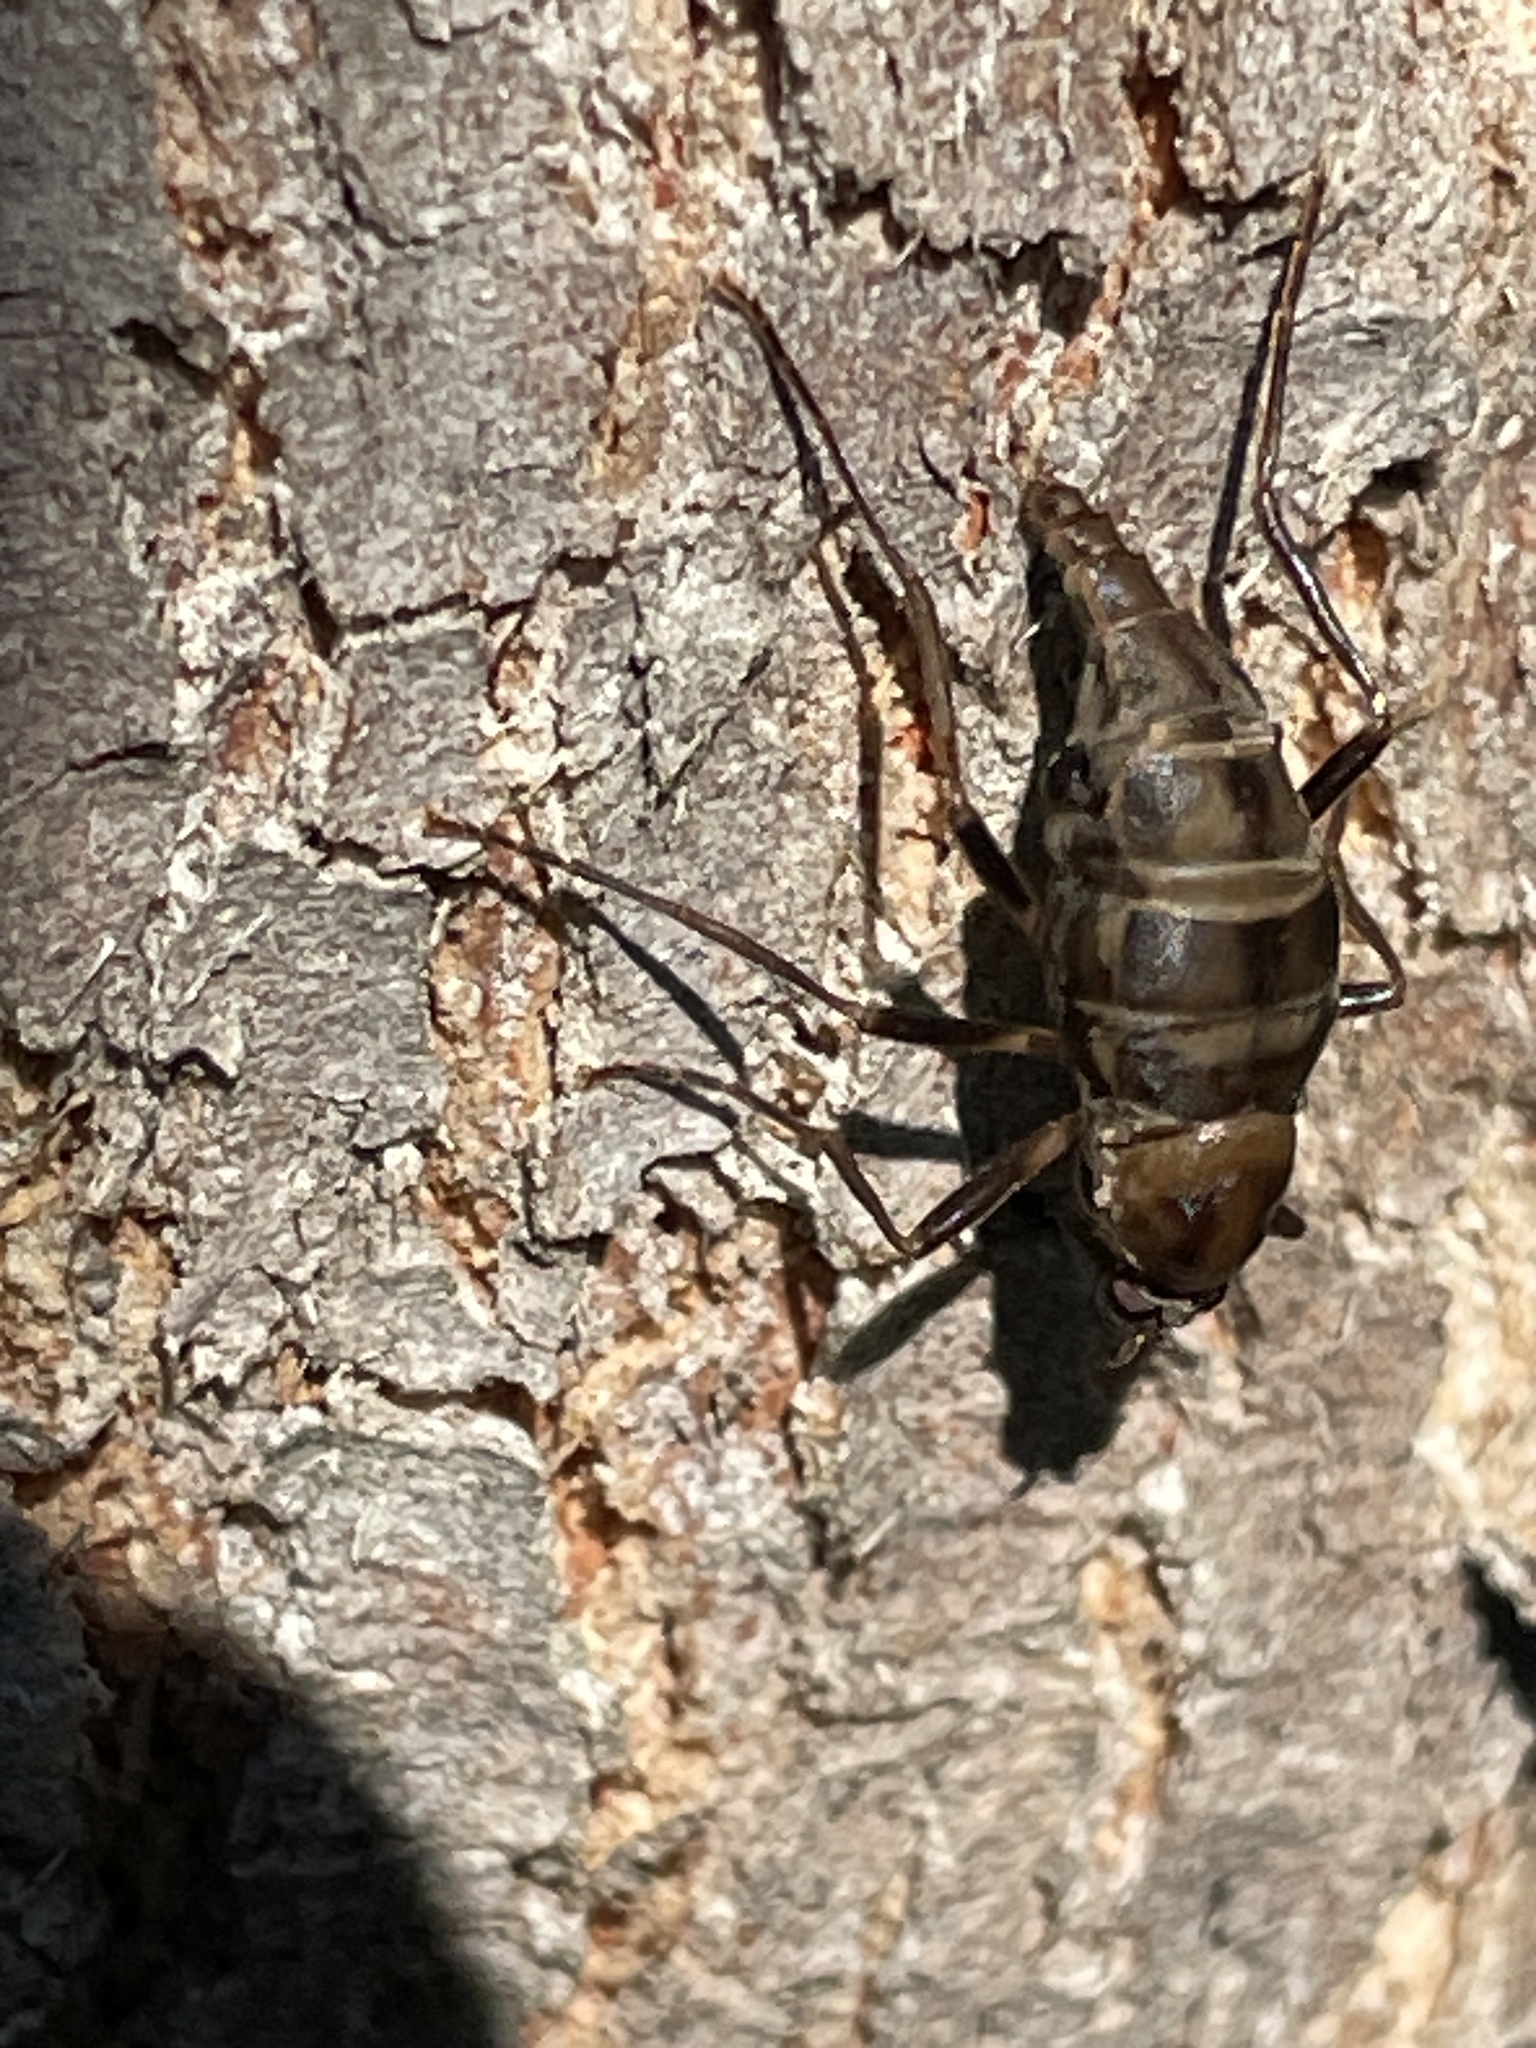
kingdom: Animalia
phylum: Arthropoda
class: Insecta
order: Diptera
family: Stratiomyidae
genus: Boreoides
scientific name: Boreoides subulatus
